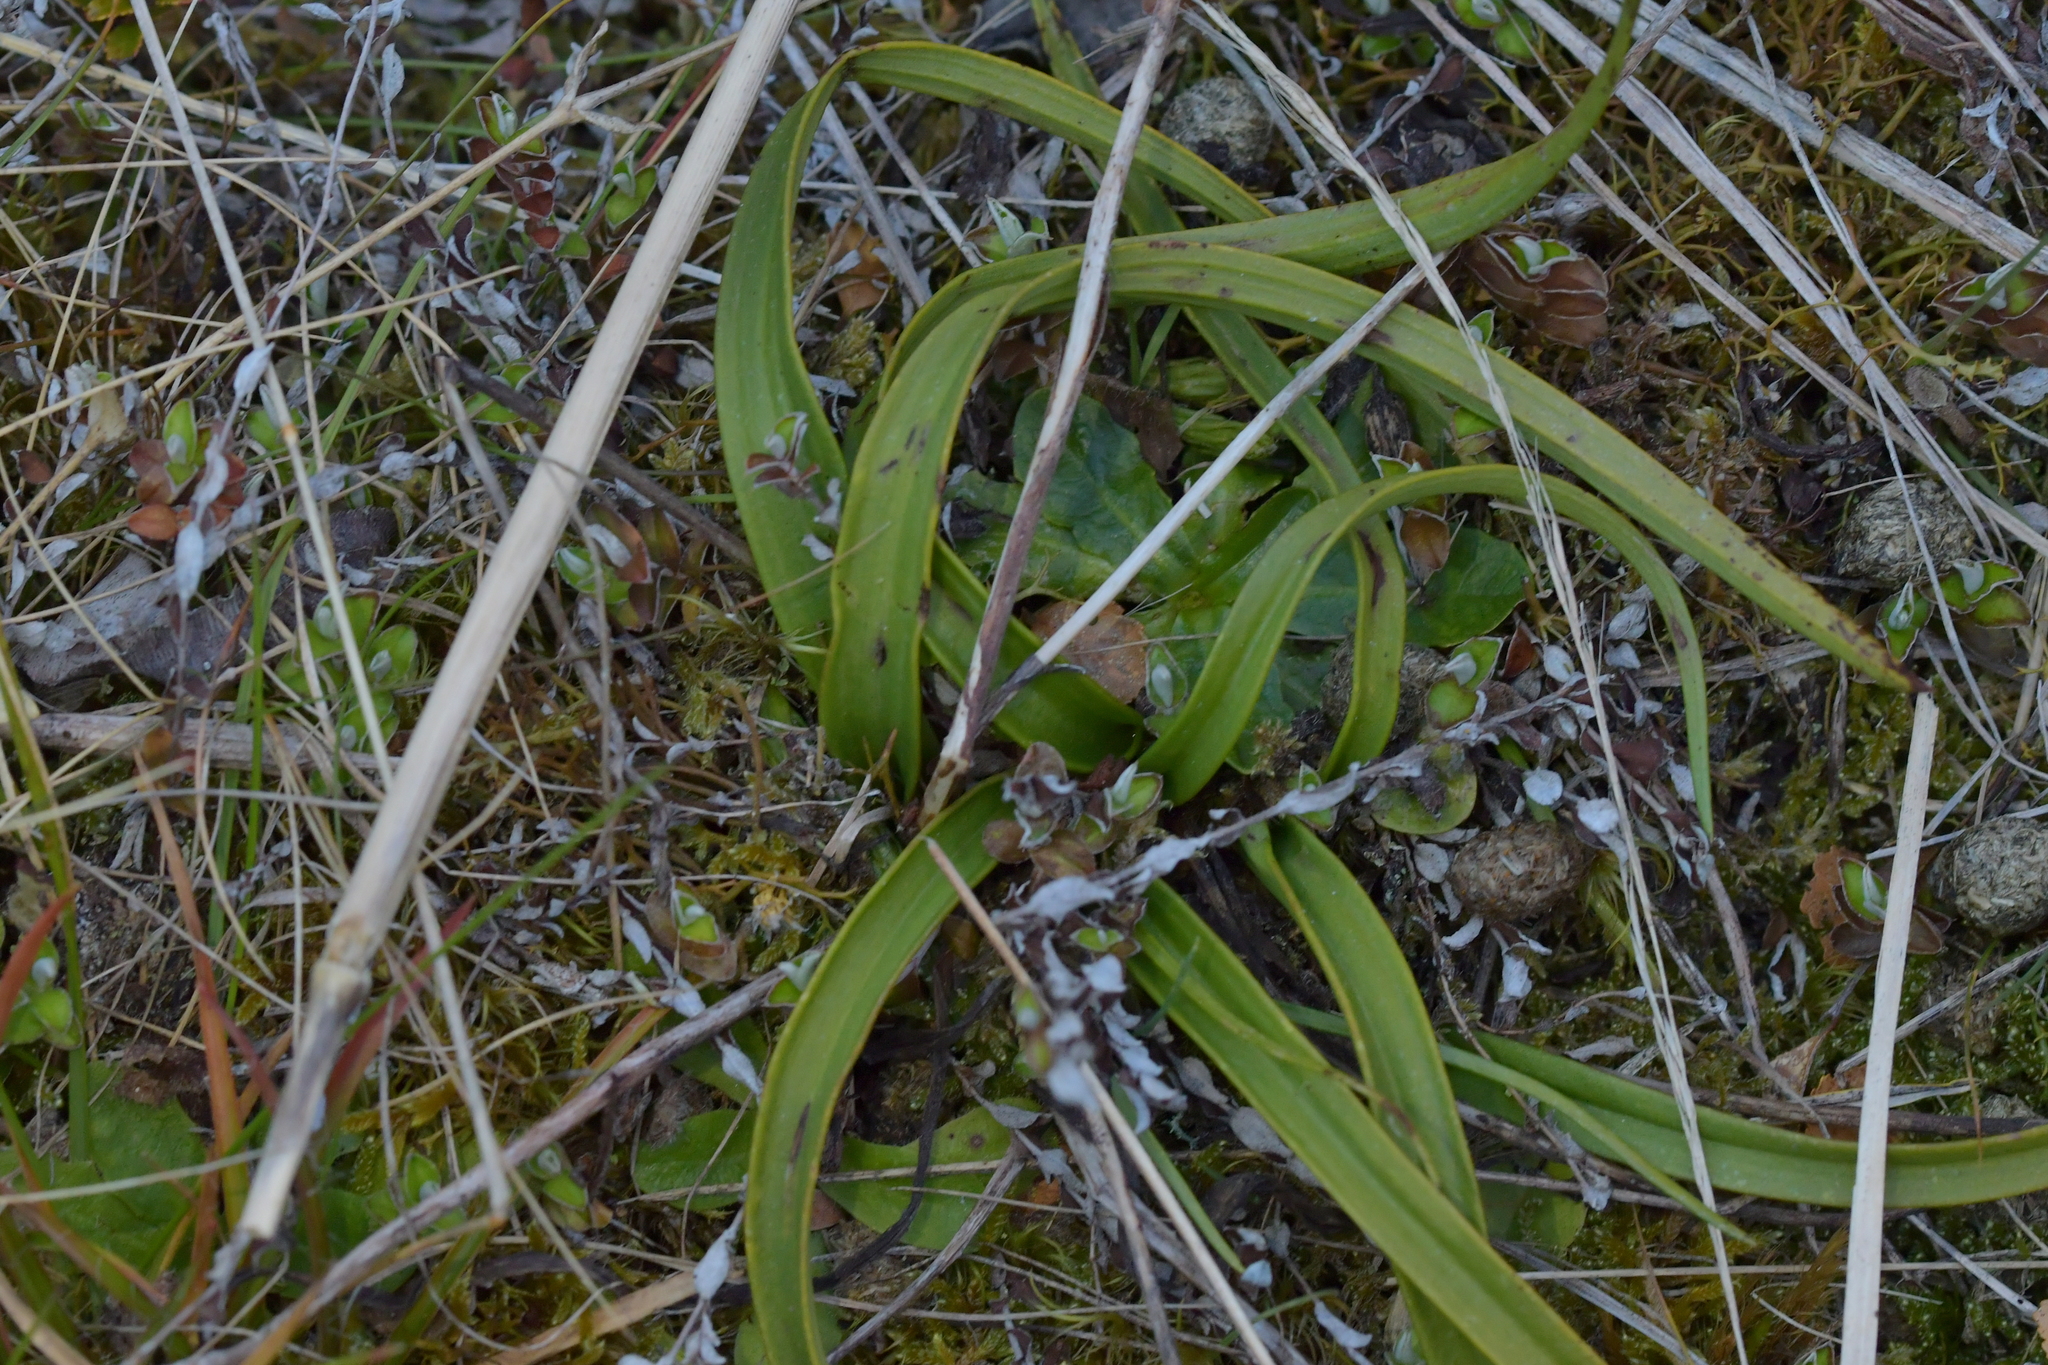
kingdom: Plantae
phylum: Tracheophyta
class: Liliopsida
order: Asparagales
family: Orchidaceae
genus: Thelymitra
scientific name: Thelymitra longifolia
